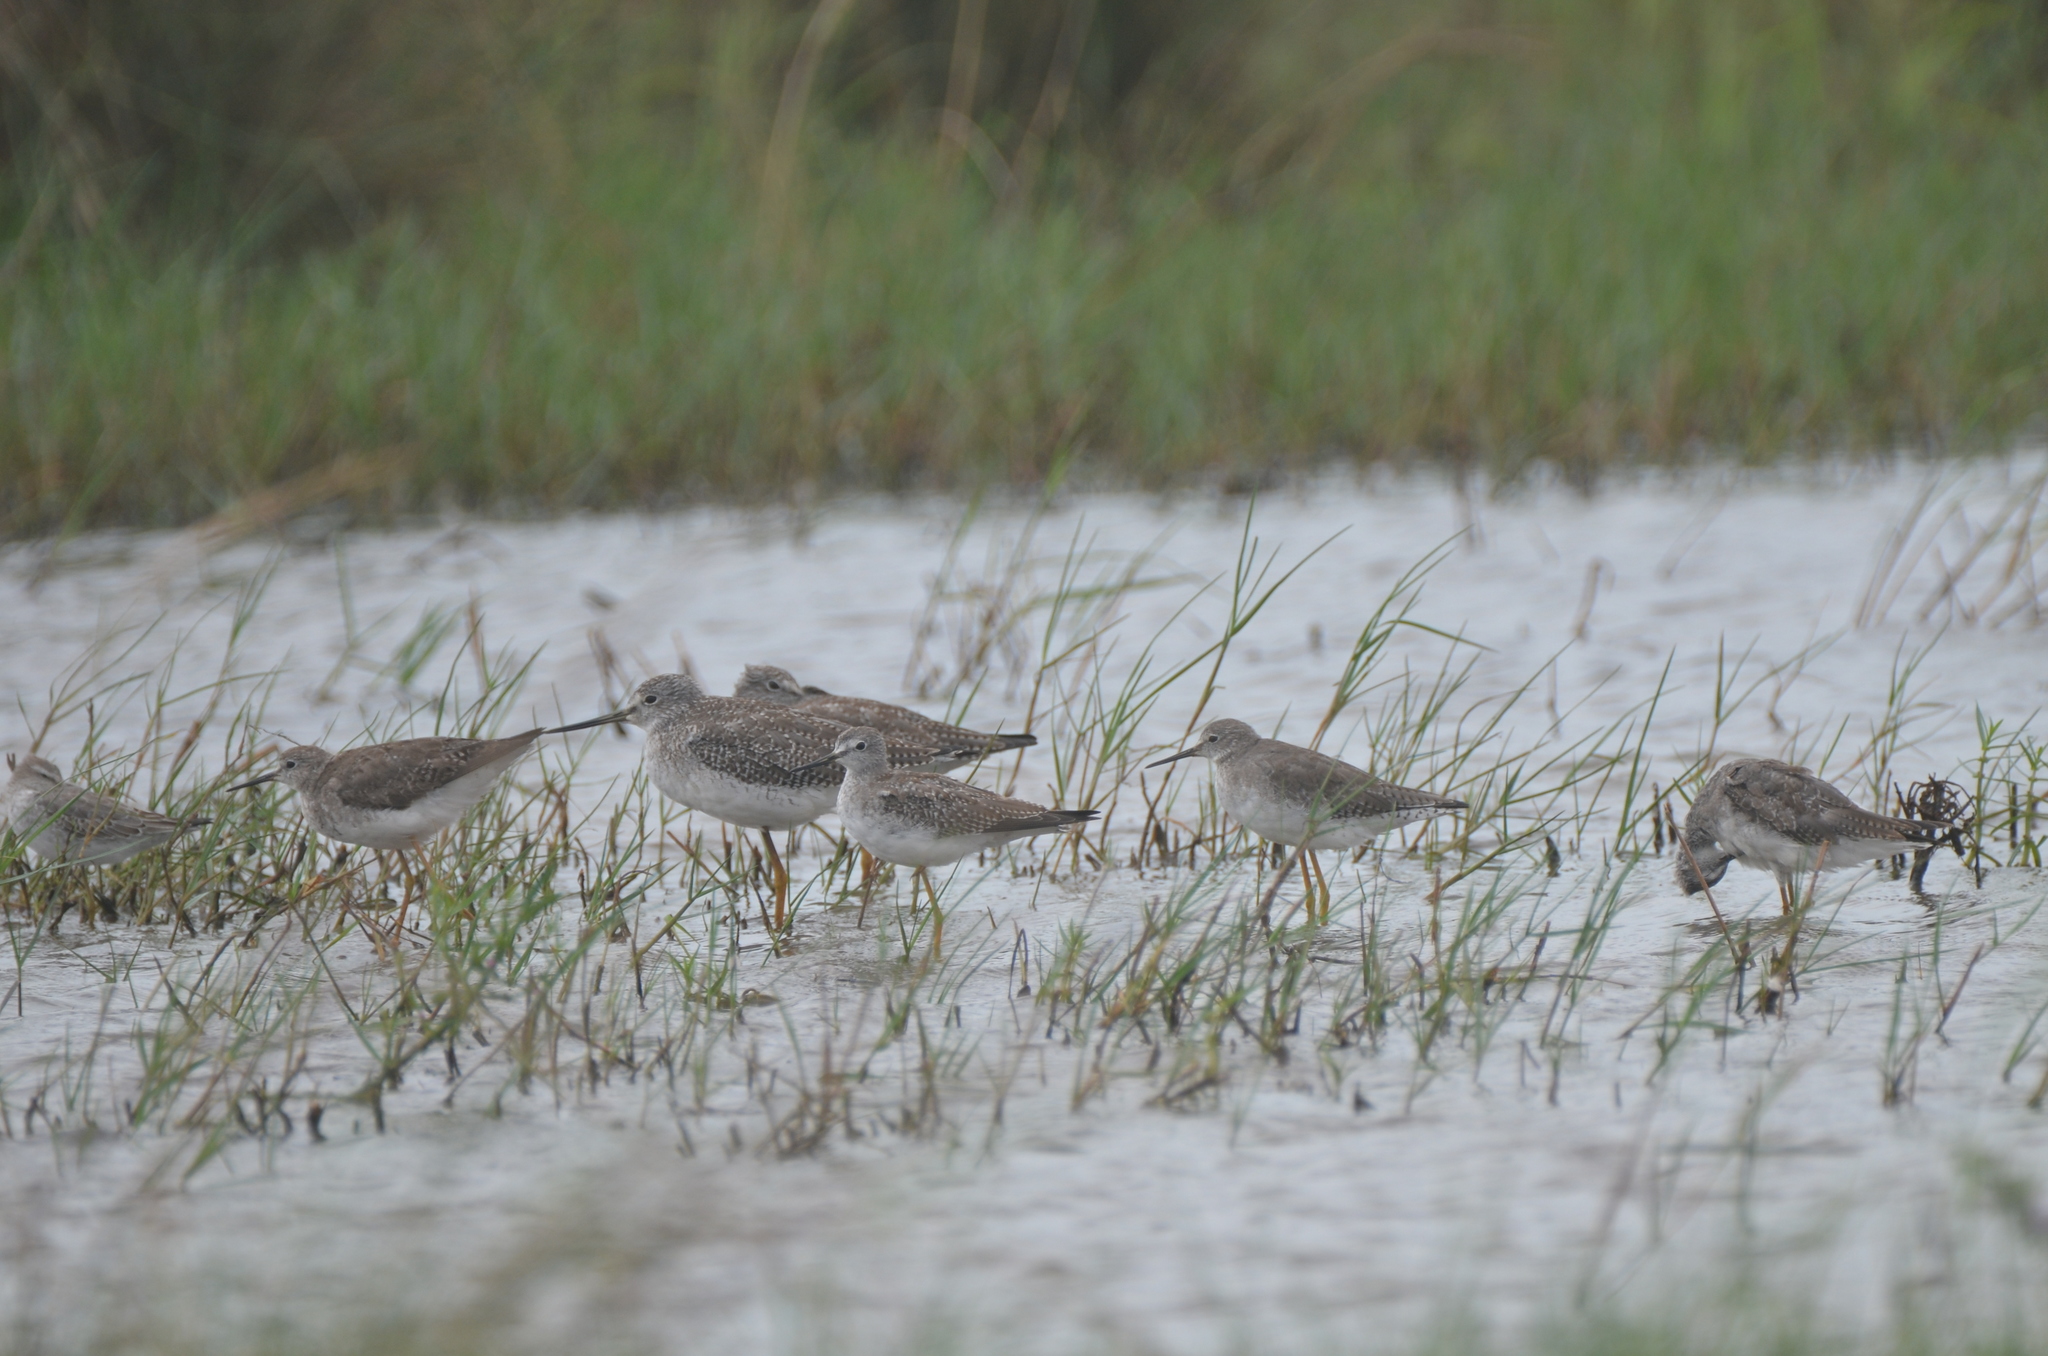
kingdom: Animalia
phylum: Chordata
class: Aves
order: Charadriiformes
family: Scolopacidae
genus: Tringa
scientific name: Tringa flavipes
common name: Lesser yellowlegs
